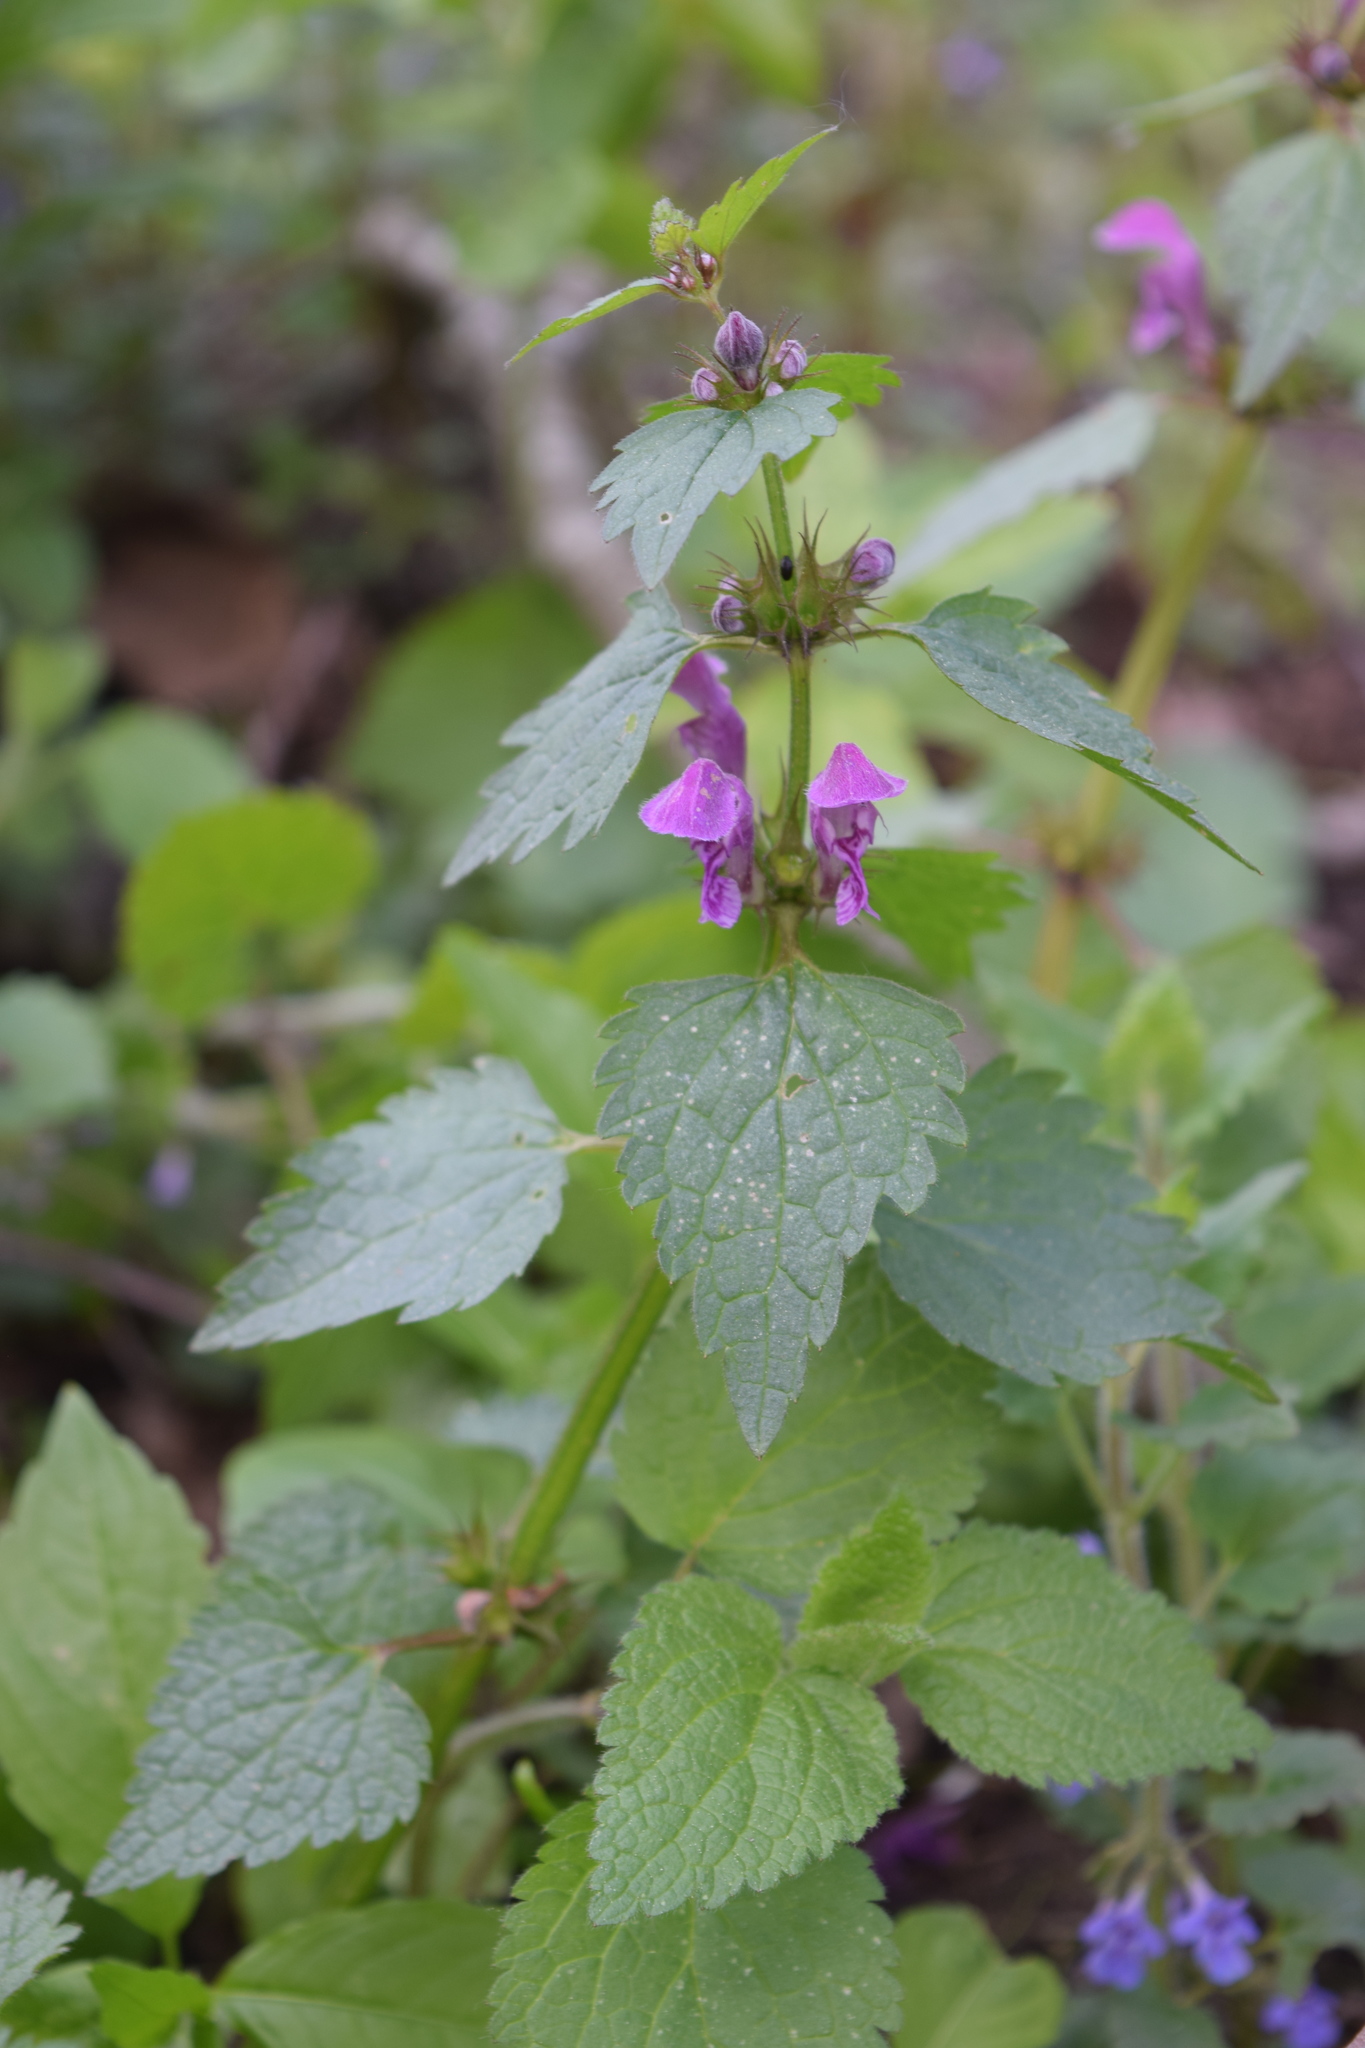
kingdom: Plantae
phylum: Tracheophyta
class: Magnoliopsida
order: Lamiales
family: Lamiaceae
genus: Lamium
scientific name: Lamium maculatum
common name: Spotted dead-nettle
